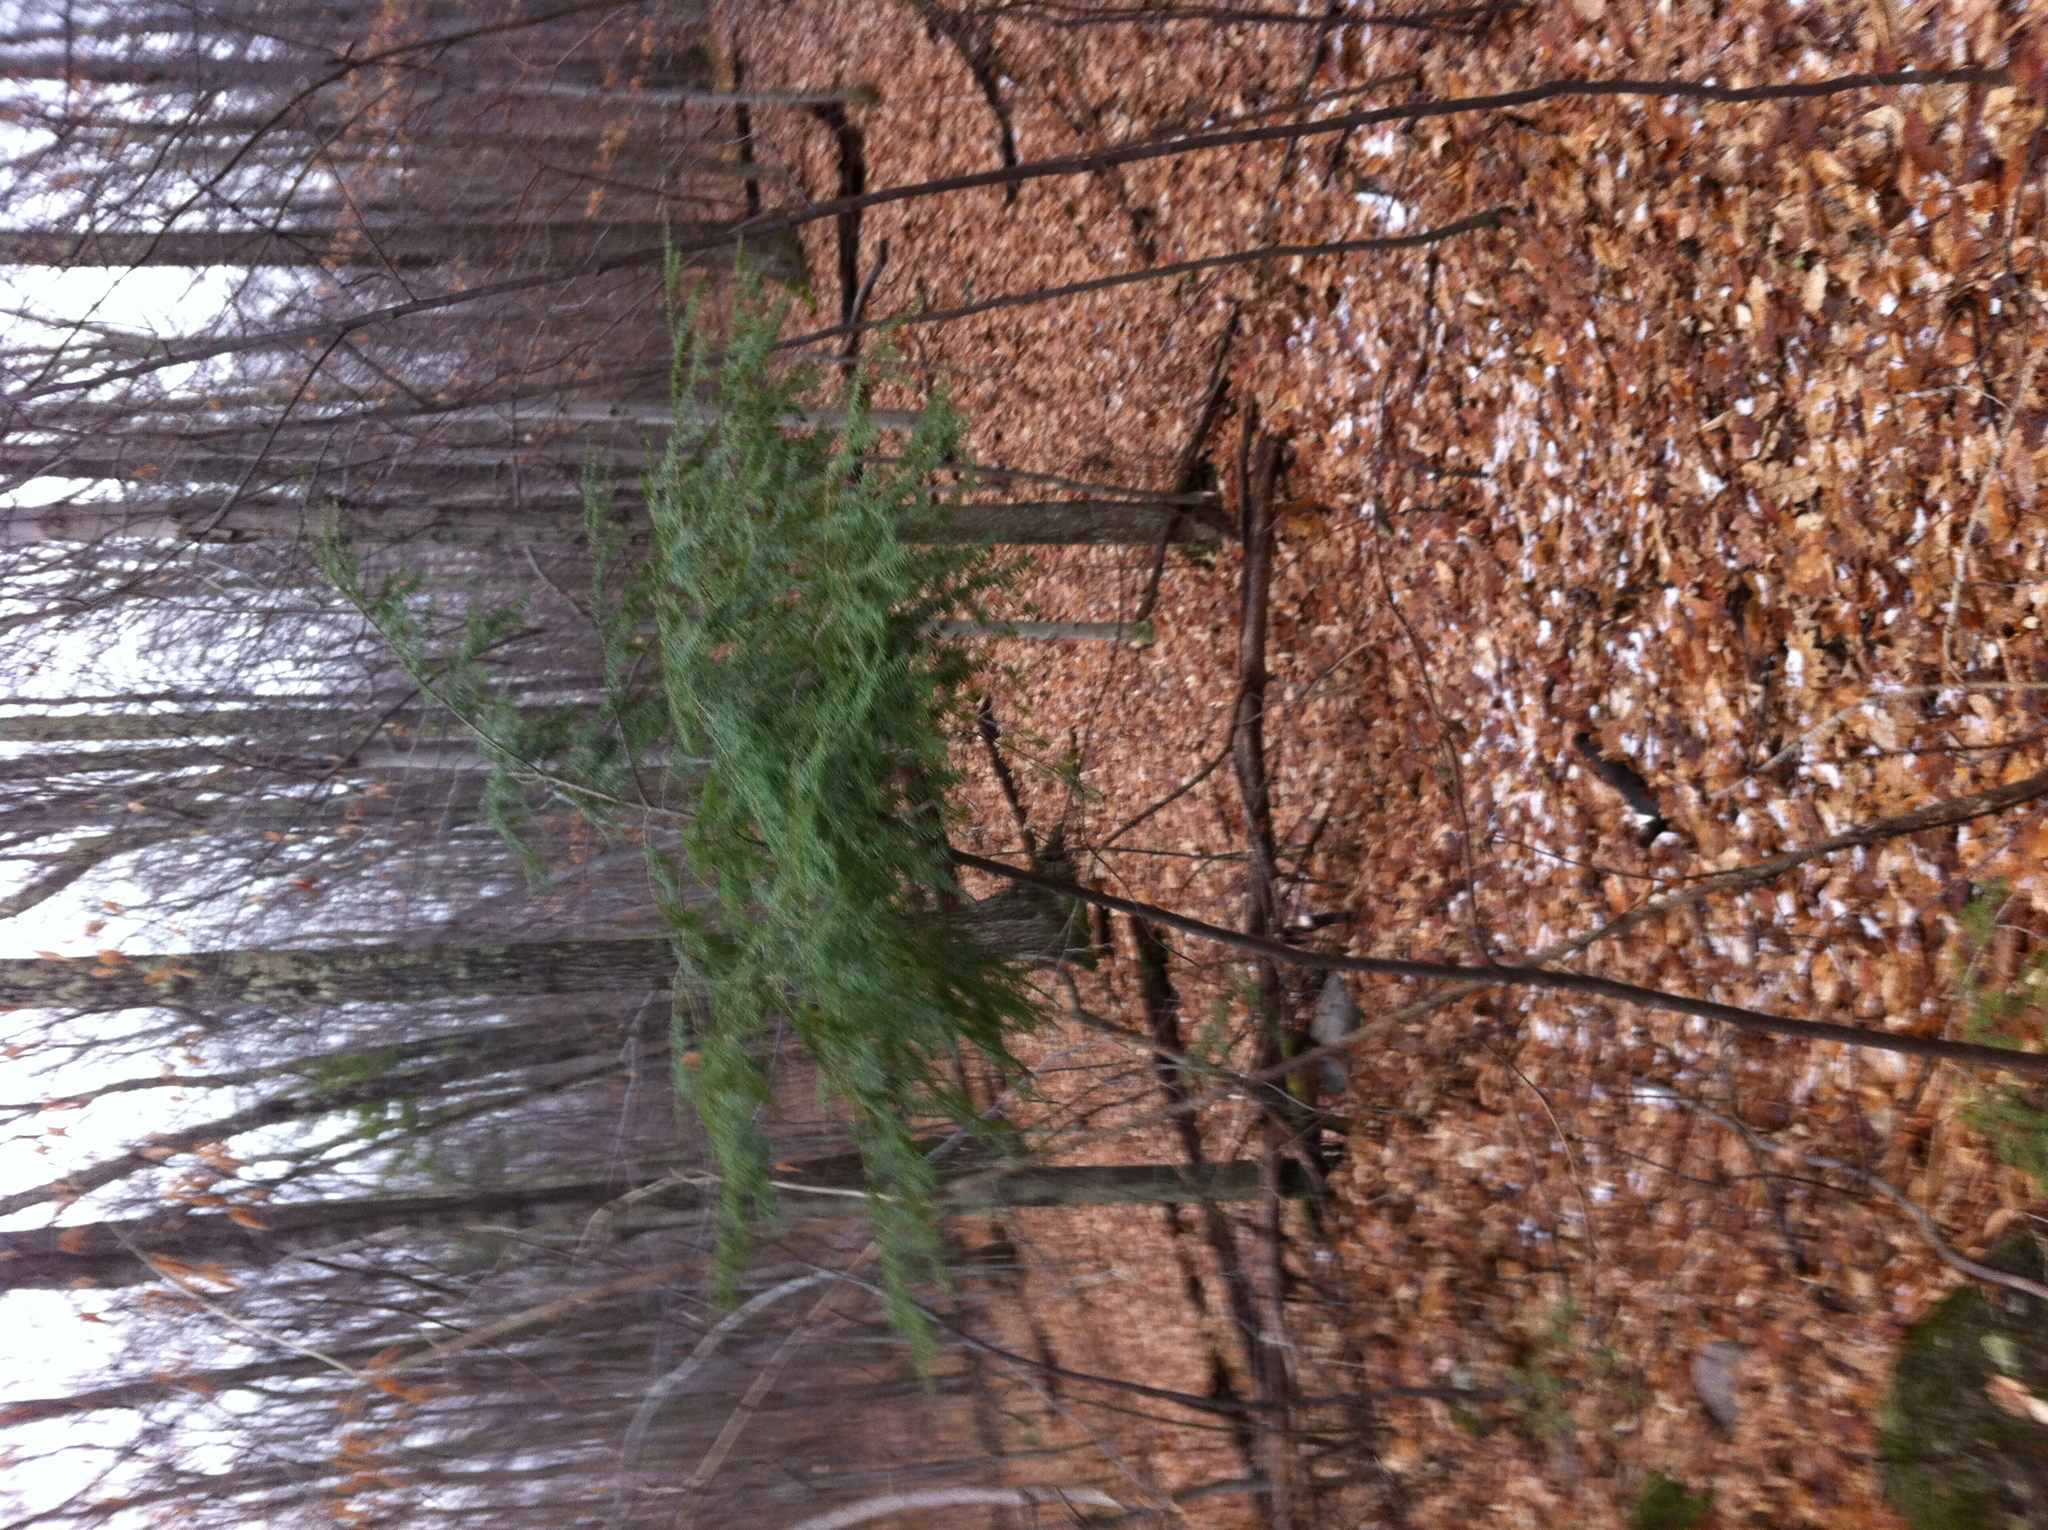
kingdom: Plantae
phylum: Tracheophyta
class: Pinopsida
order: Pinales
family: Pinaceae
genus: Tsuga
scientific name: Tsuga canadensis
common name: Eastern hemlock
